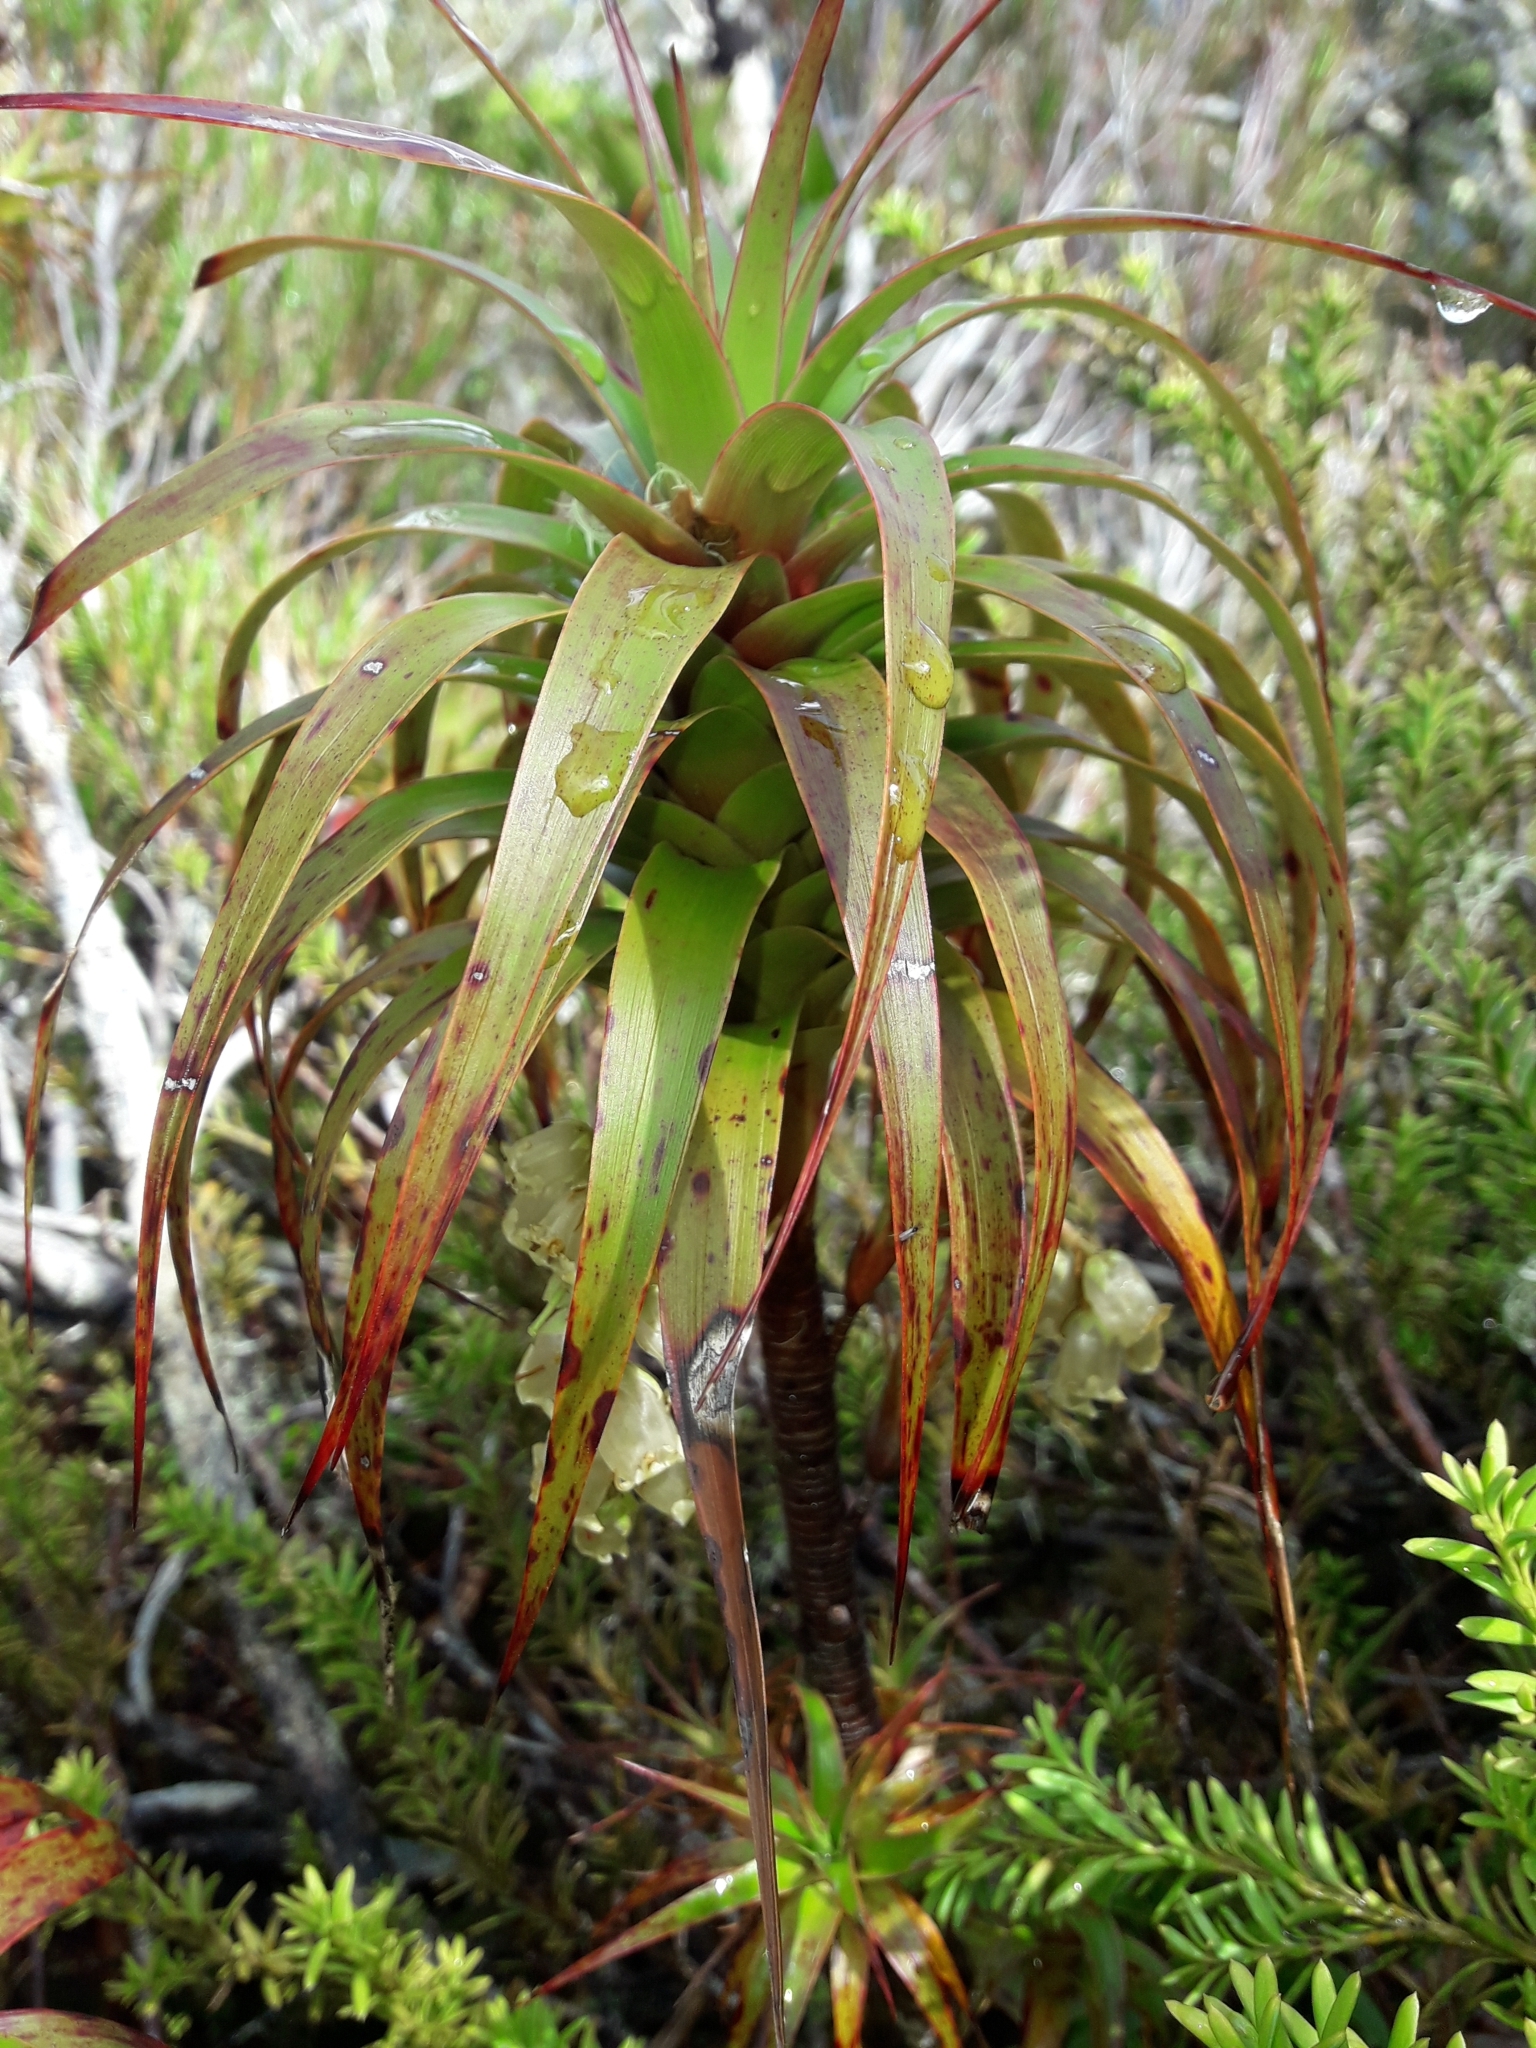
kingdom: Plantae
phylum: Tracheophyta
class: Magnoliopsida
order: Ericales
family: Ericaceae
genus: Dracophyllum
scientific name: Dracophyllum menziesii
